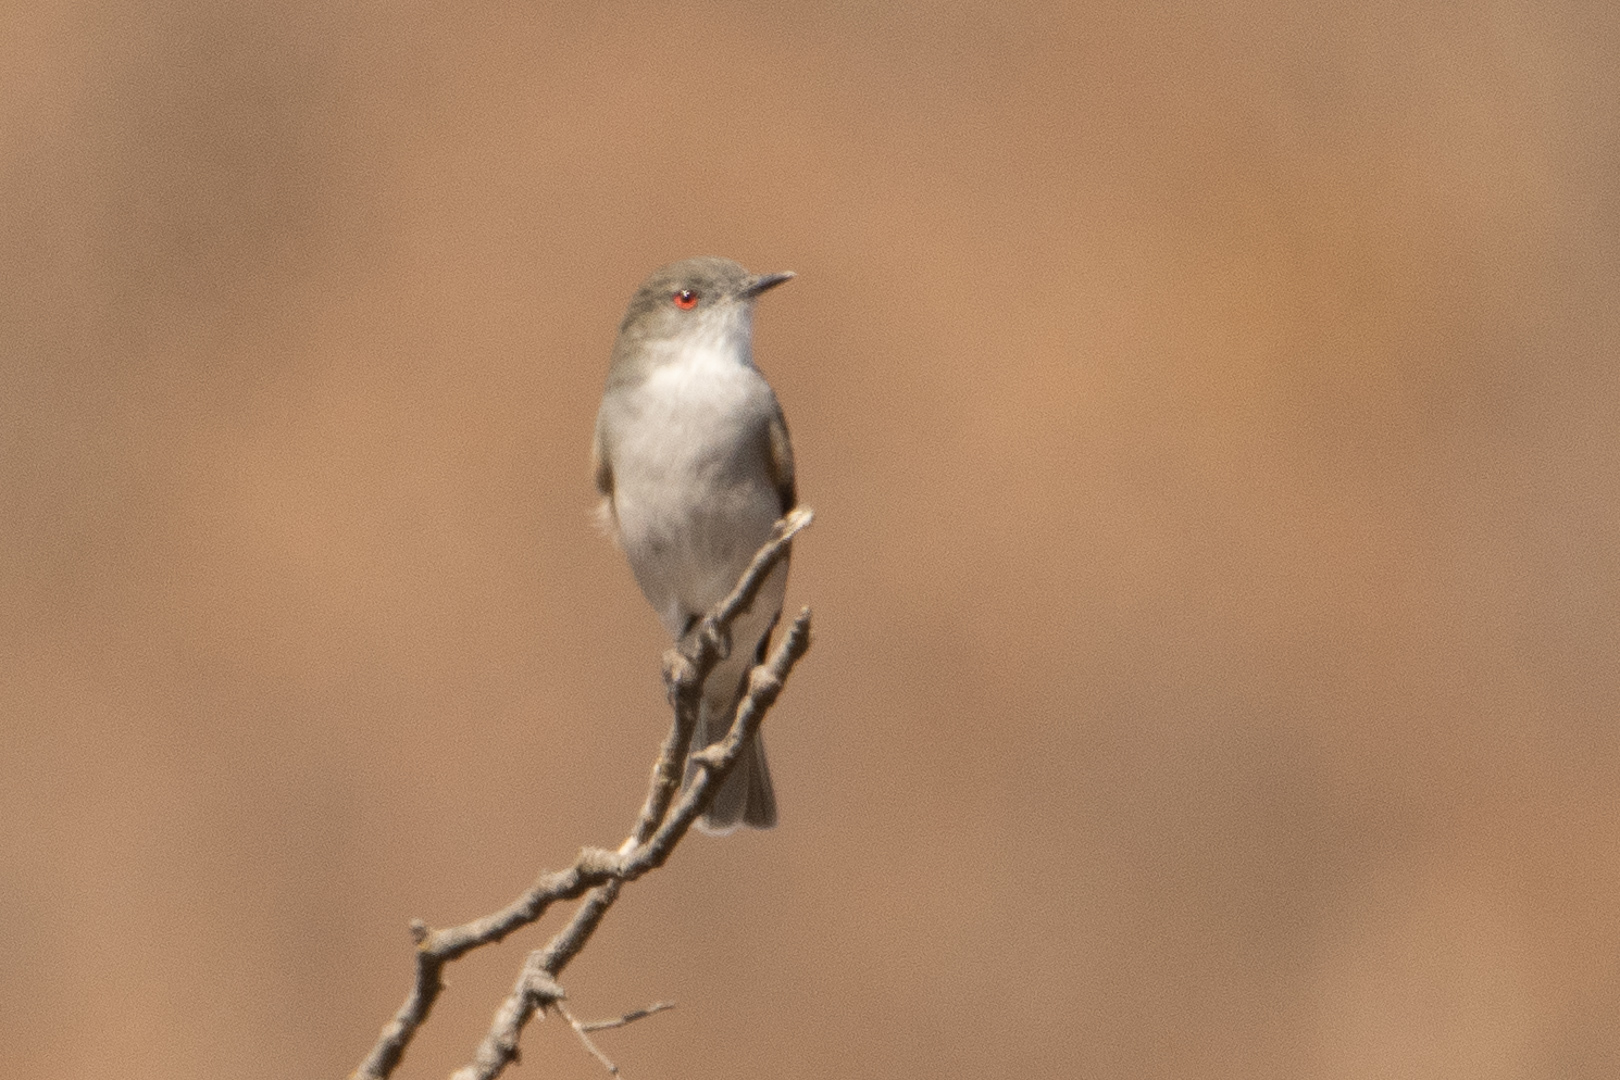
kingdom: Animalia
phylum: Chordata
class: Aves
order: Passeriformes
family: Tyrannidae
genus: Xolmis
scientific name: Xolmis pyrope
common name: Fire-eyed diucon
